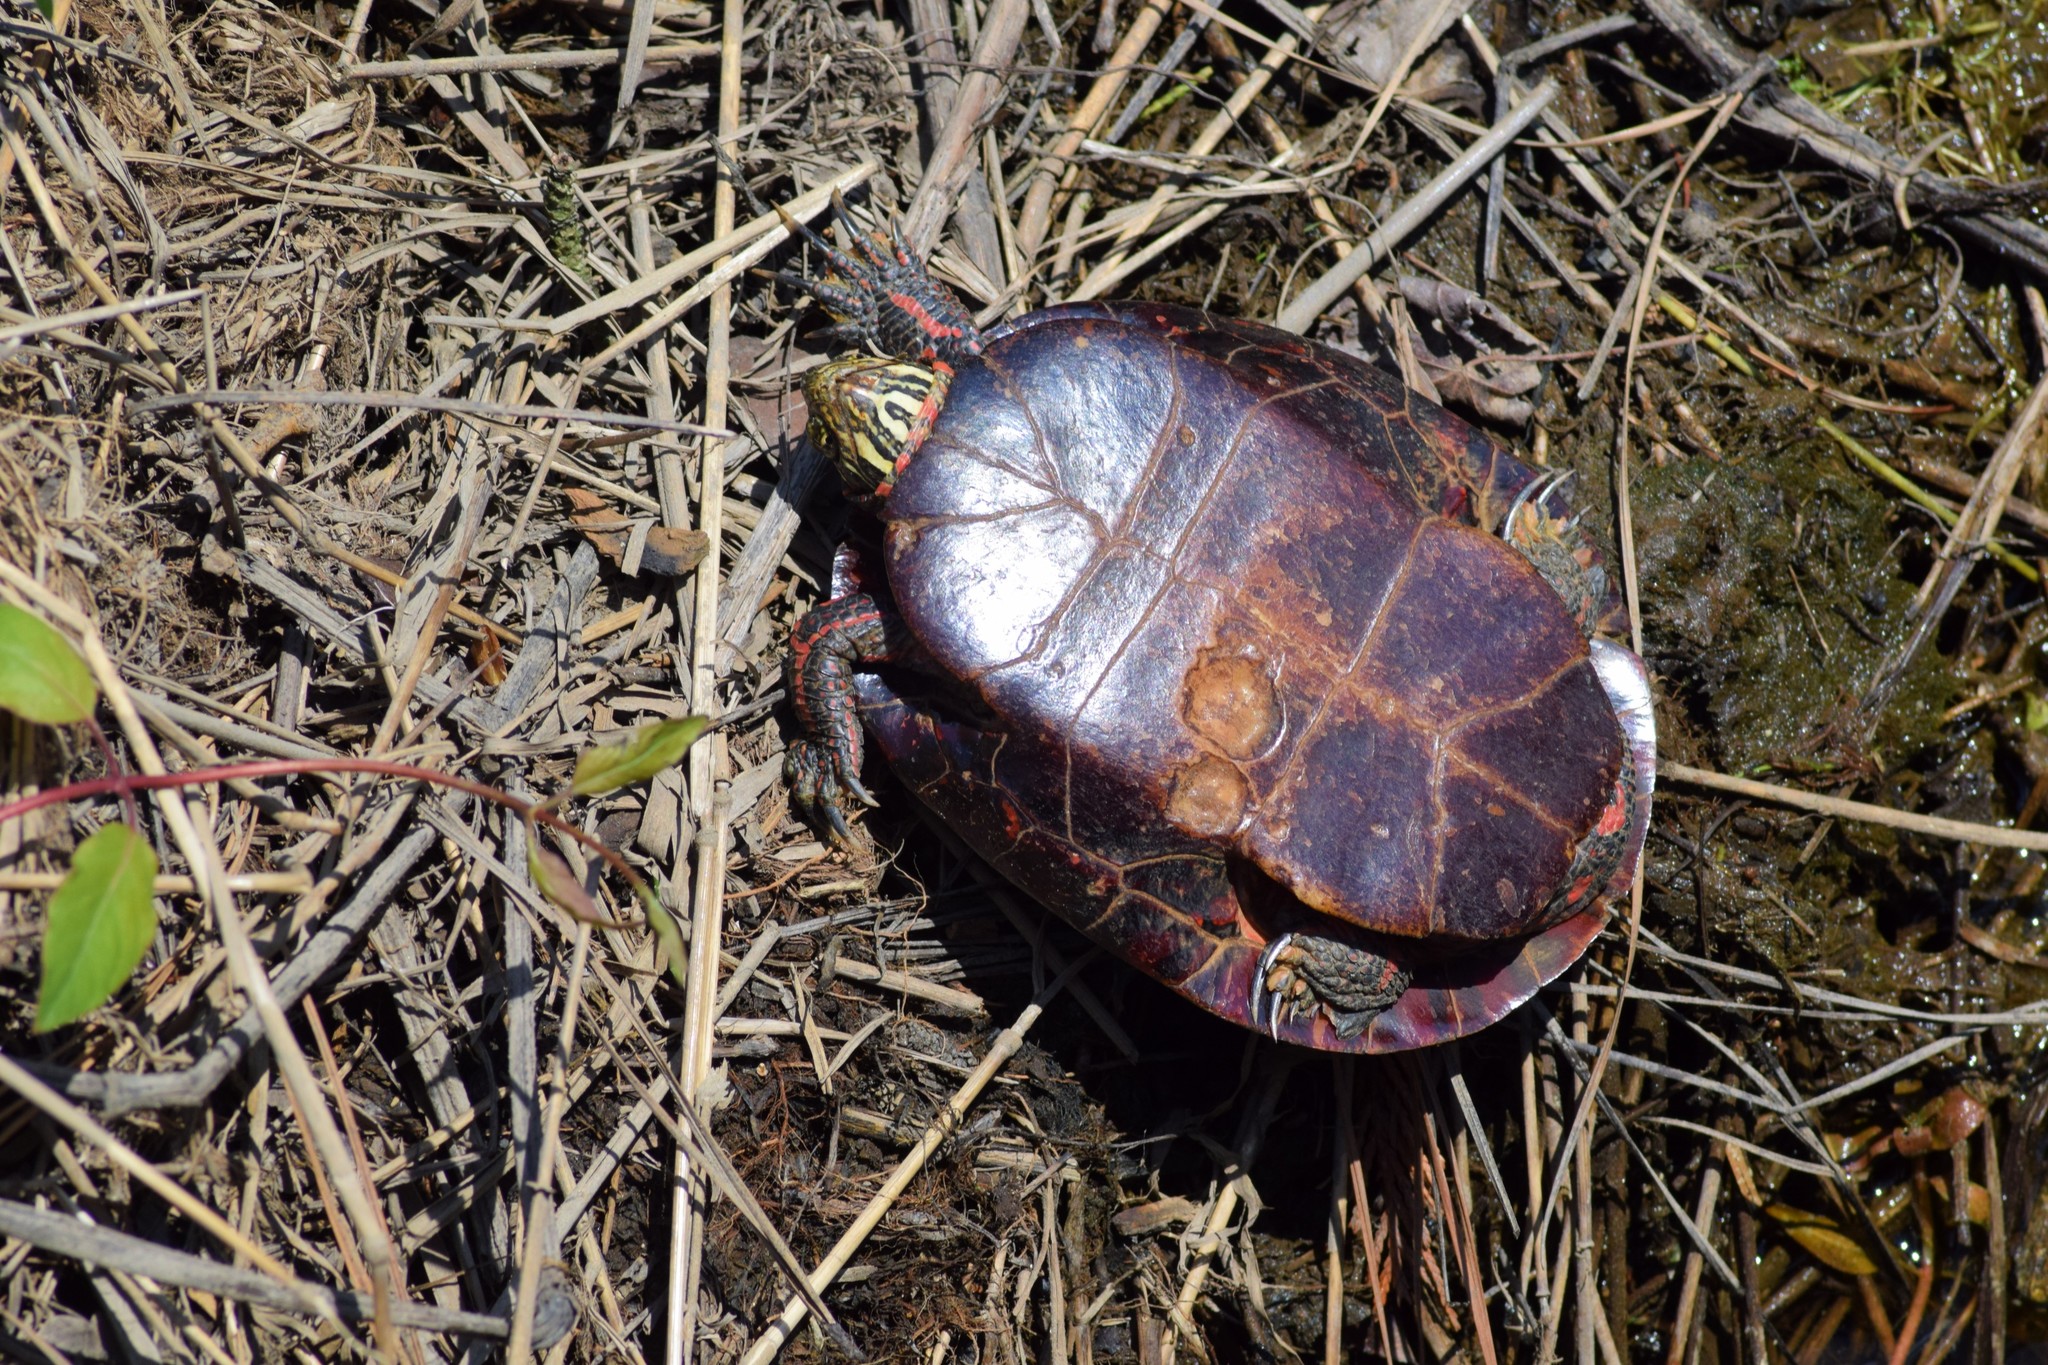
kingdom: Animalia
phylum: Chordata
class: Testudines
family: Emydidae
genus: Chrysemys
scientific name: Chrysemys picta
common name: Painted turtle
